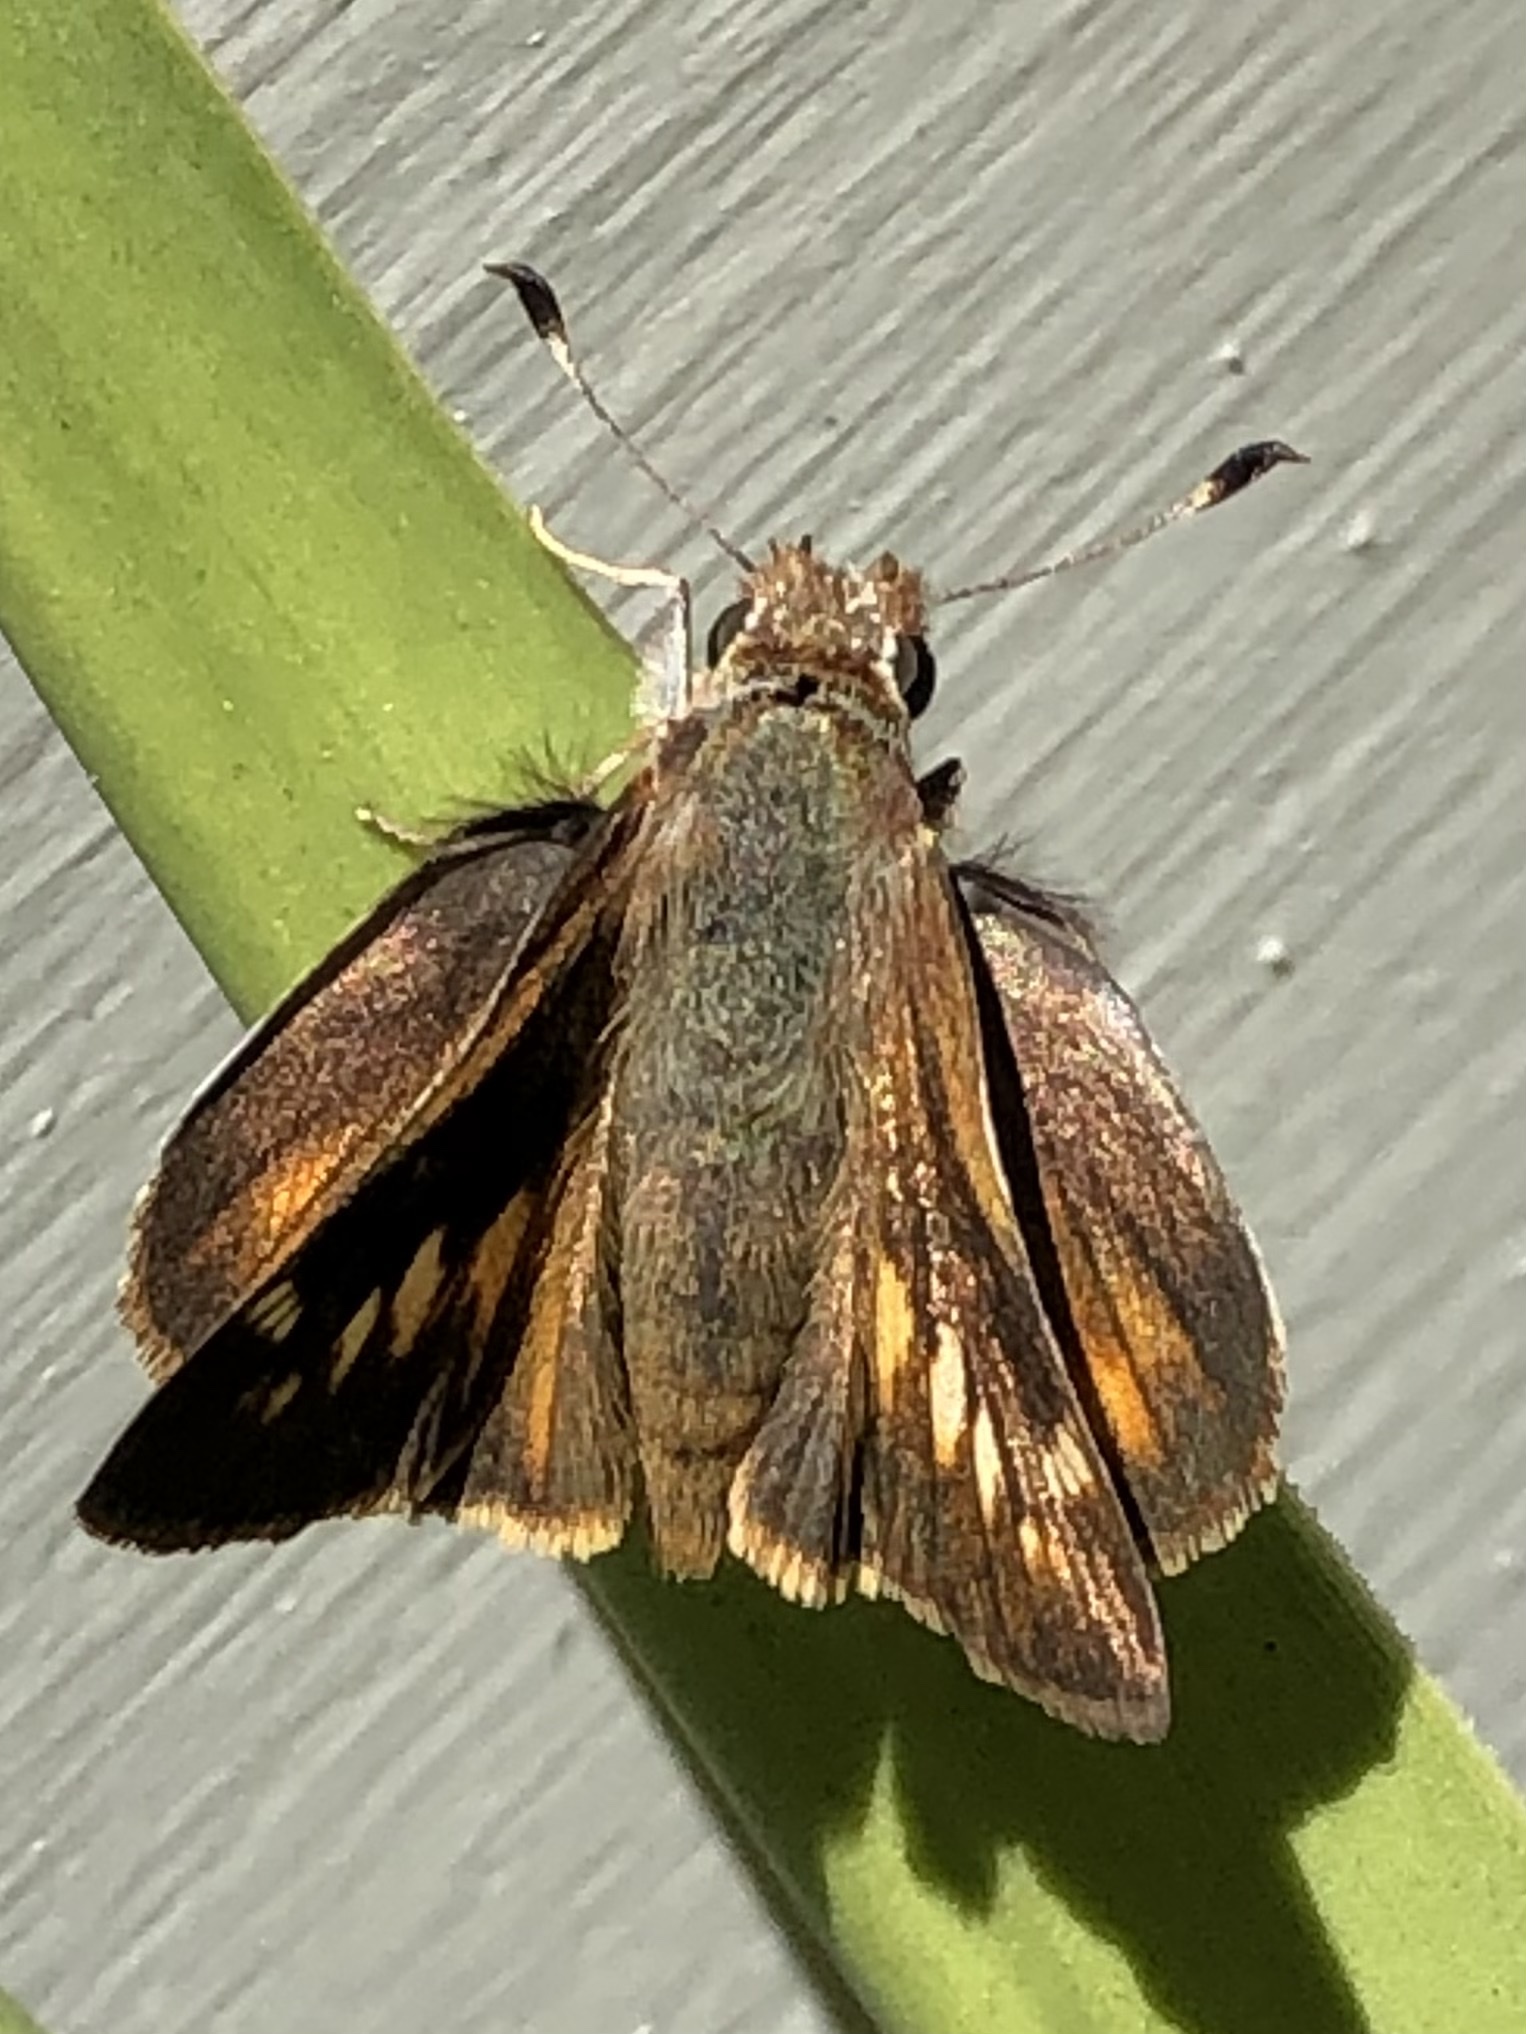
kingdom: Animalia
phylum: Arthropoda
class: Insecta
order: Lepidoptera
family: Hesperiidae
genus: Lon
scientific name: Lon melane
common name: Umber skipper
